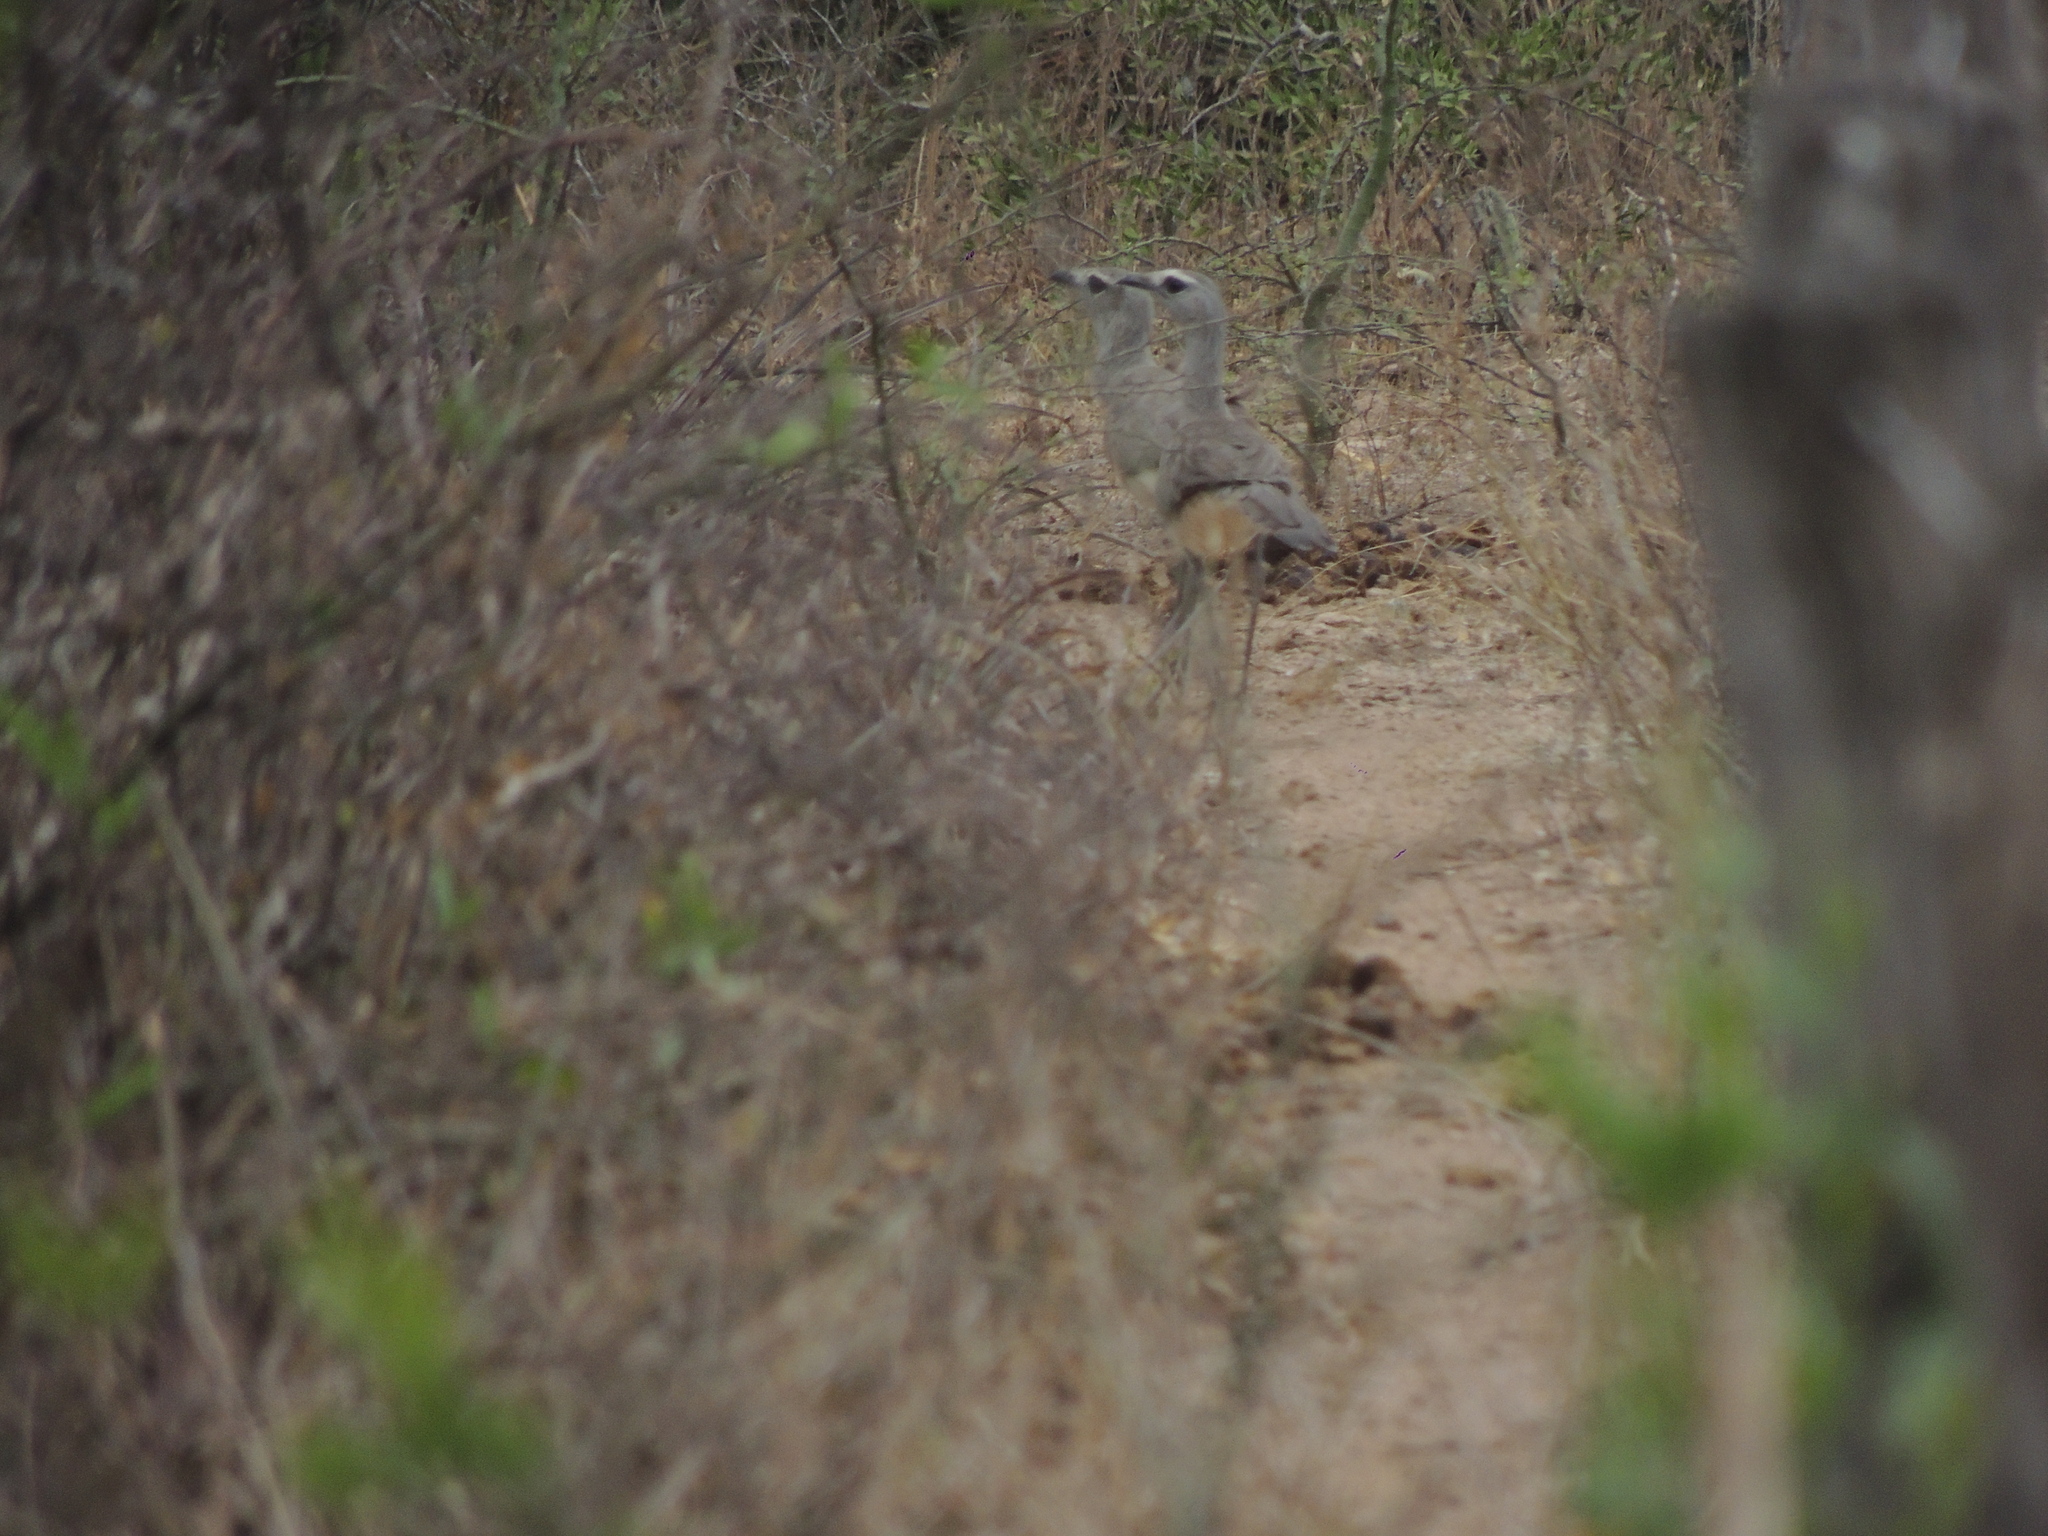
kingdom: Animalia
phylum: Chordata
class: Aves
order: Cariamiformes
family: Cariamidae
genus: Chunga
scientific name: Chunga burmeisteri
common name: Black-legged seriema
